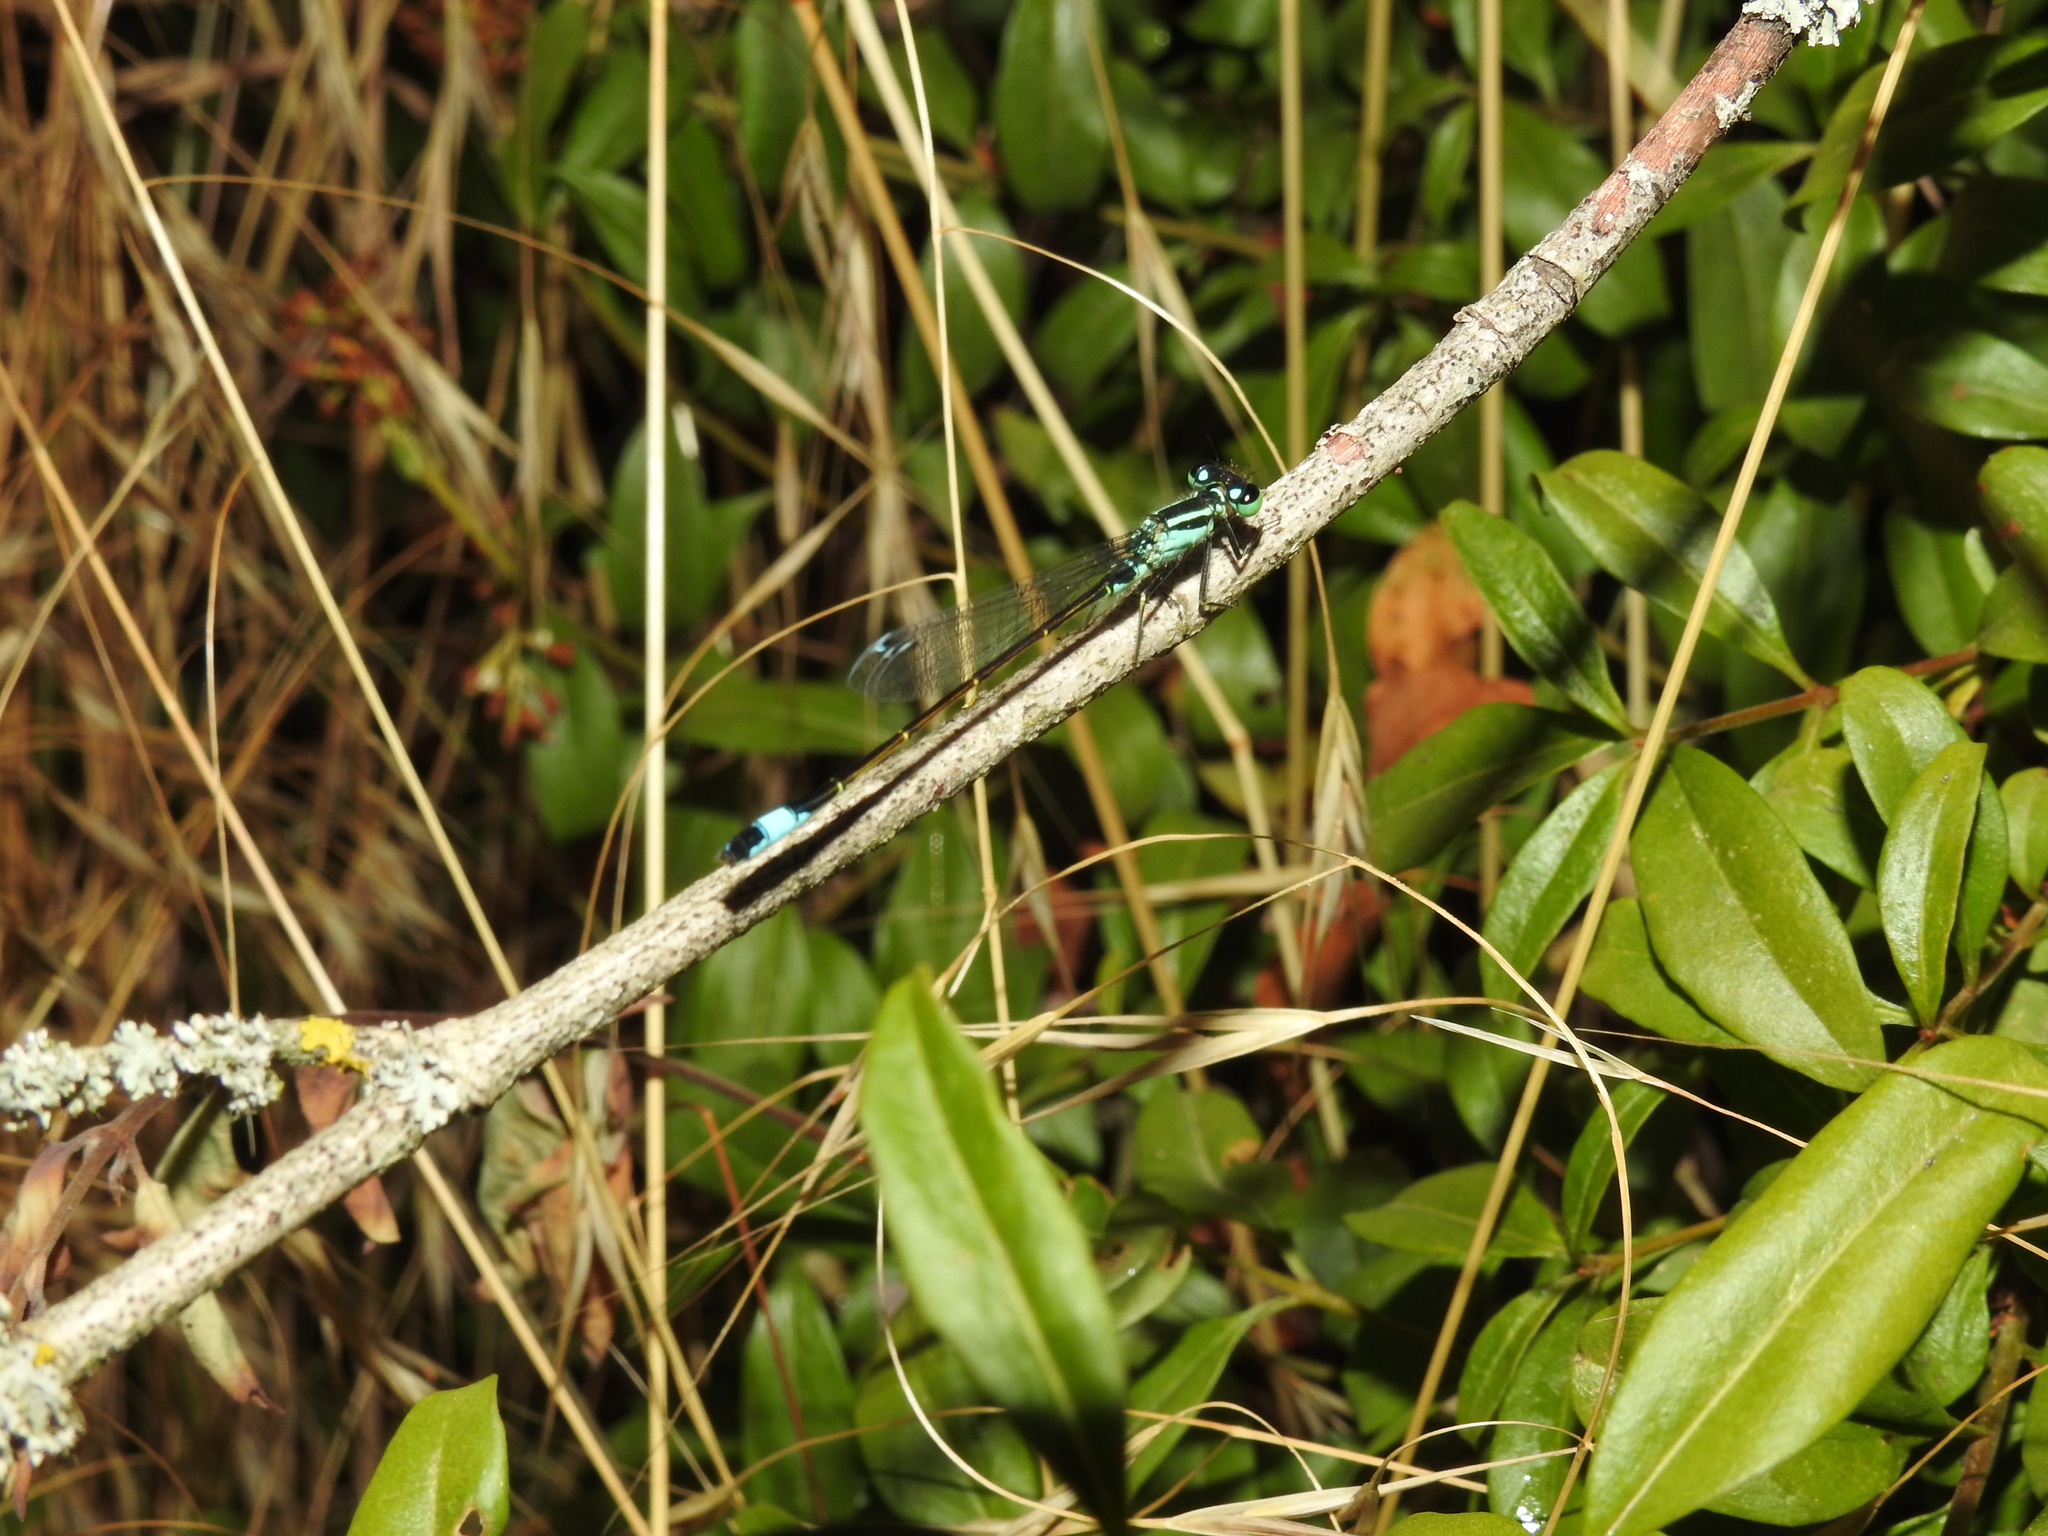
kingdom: Animalia
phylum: Arthropoda
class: Insecta
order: Odonata
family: Coenagrionidae
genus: Ischnura
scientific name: Ischnura elegans
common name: Blue-tailed damselfly
